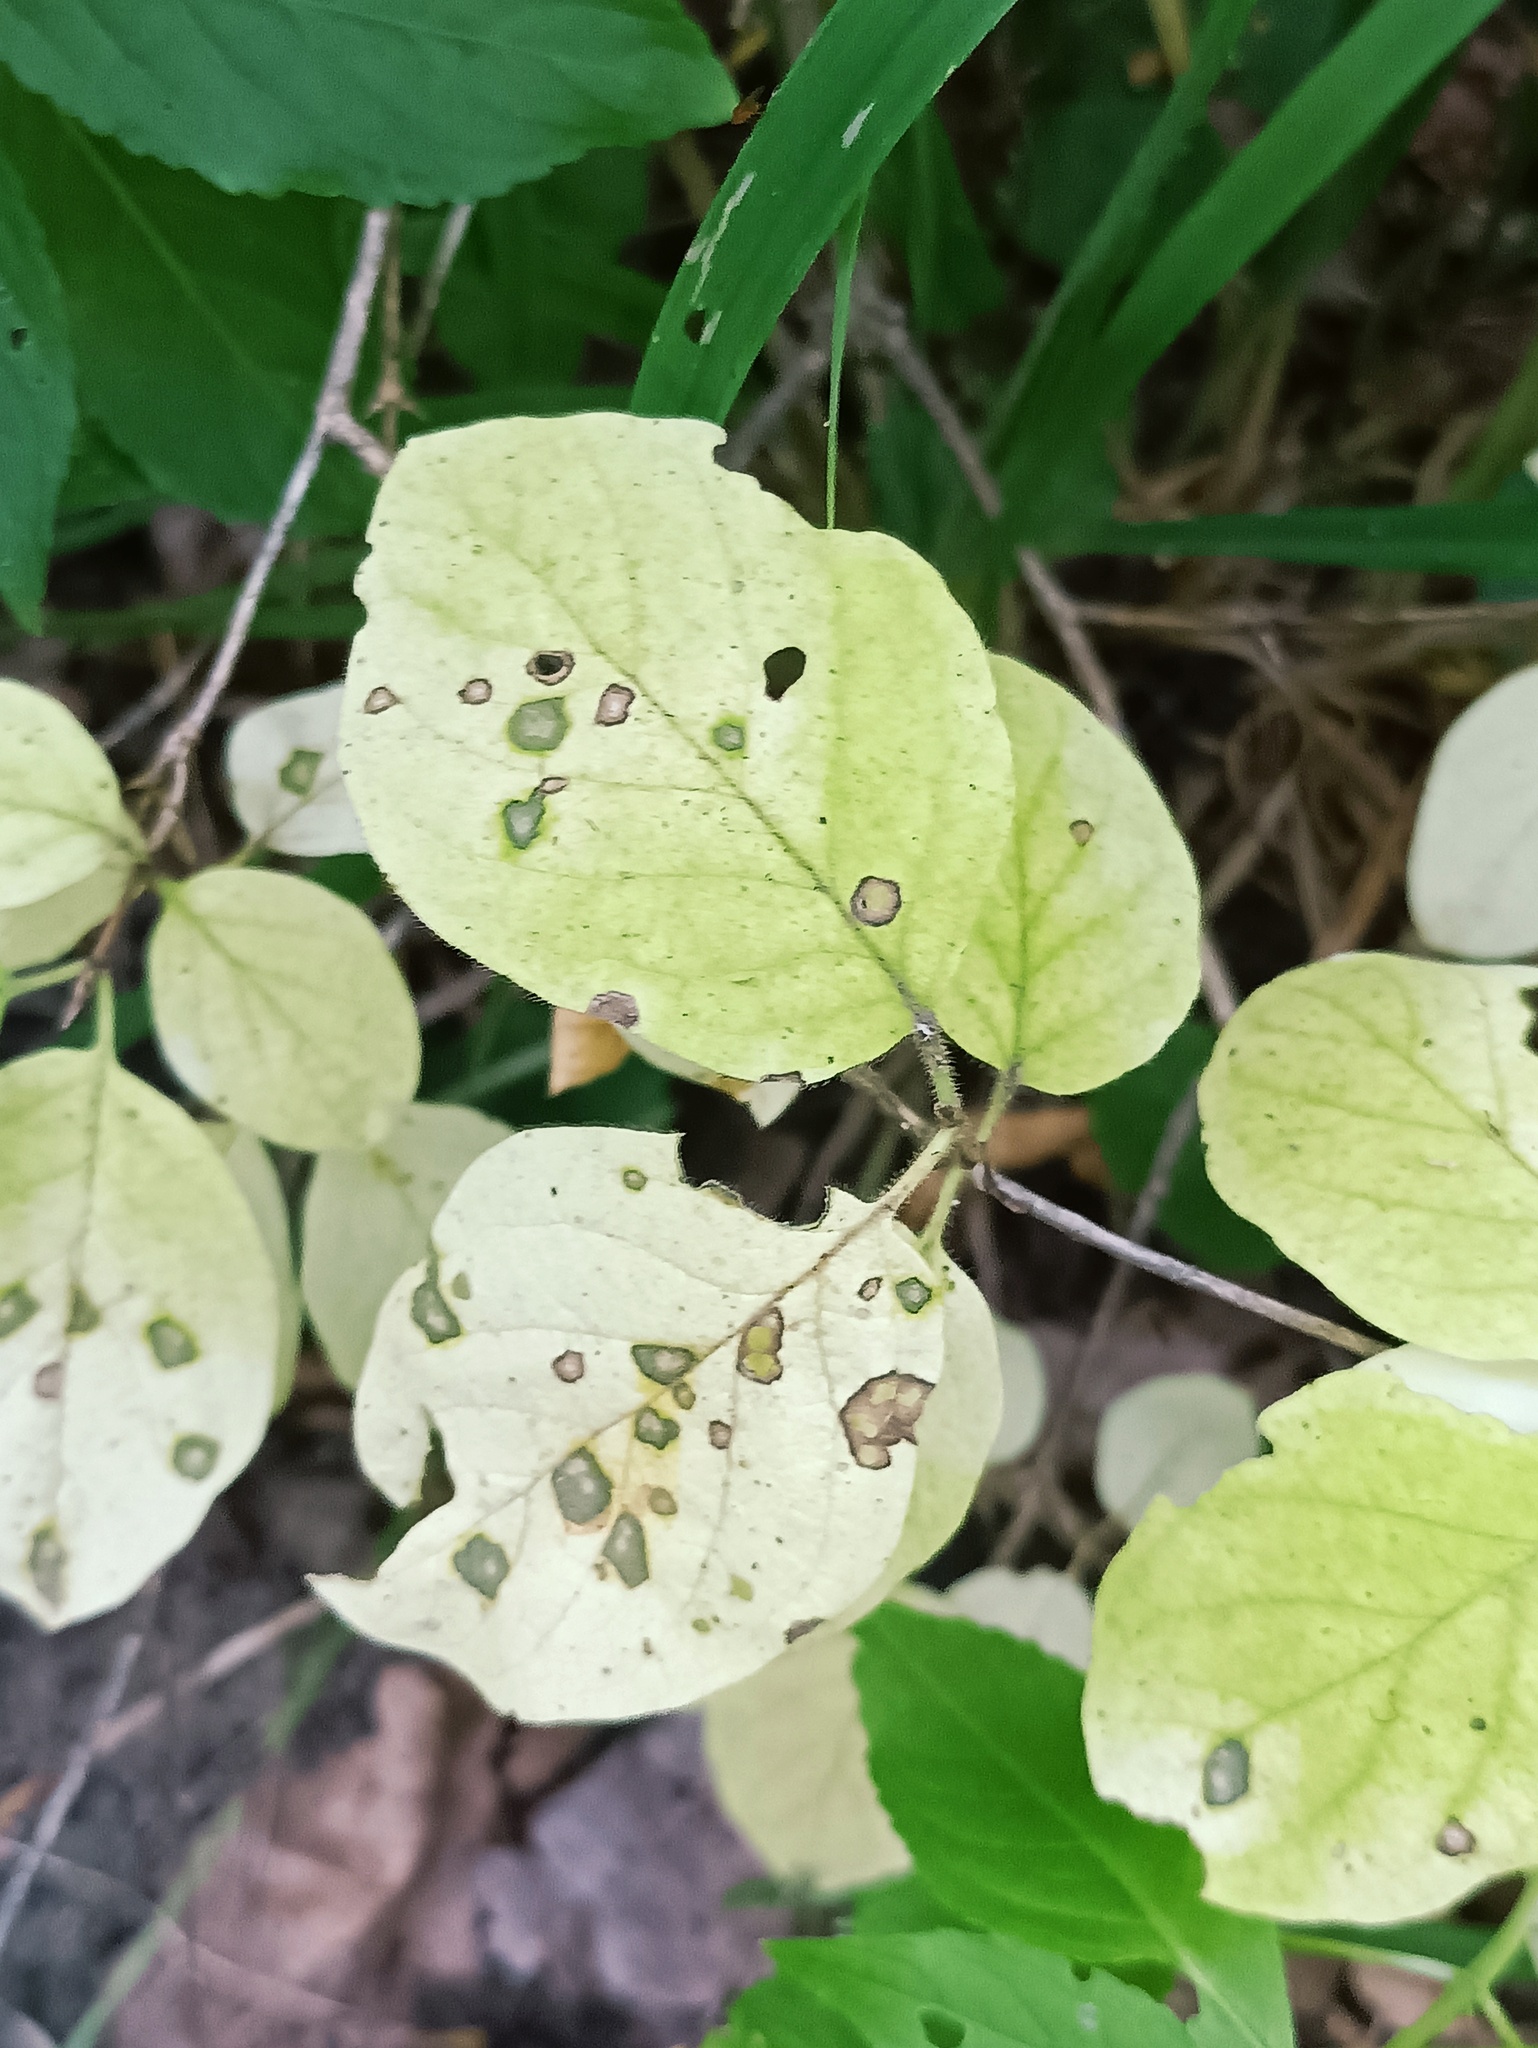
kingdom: Plantae
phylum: Tracheophyta
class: Magnoliopsida
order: Dipsacales
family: Caprifoliaceae
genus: Lonicera
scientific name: Lonicera xylosteum
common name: Fly honeysuckle
